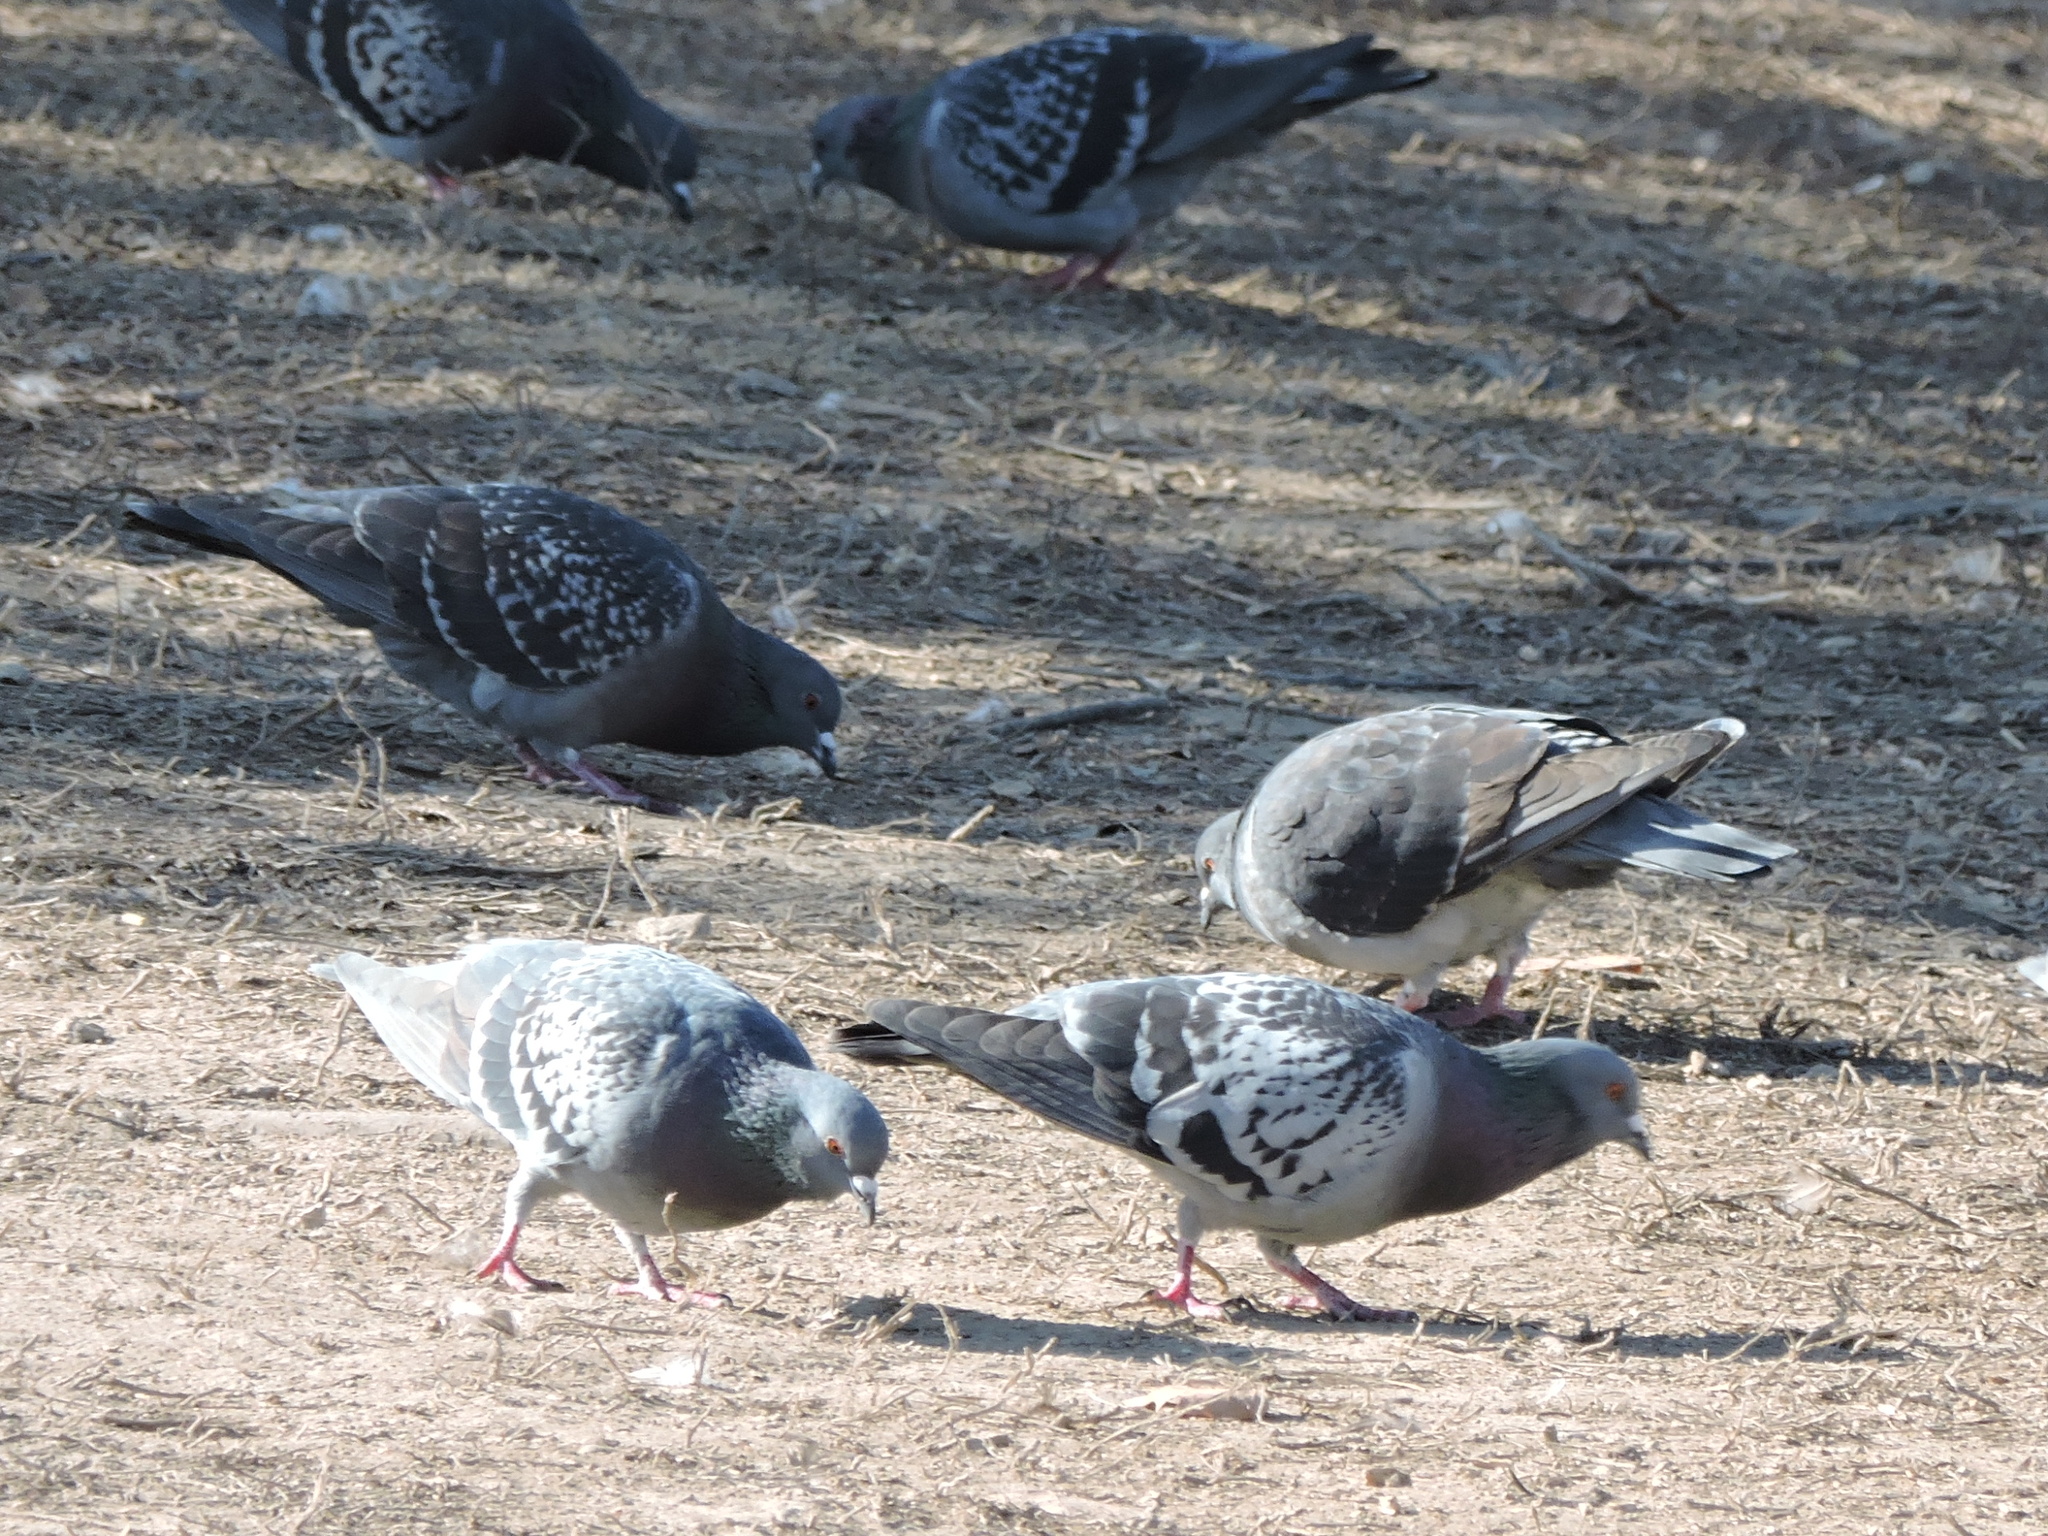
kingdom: Animalia
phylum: Chordata
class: Aves
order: Columbiformes
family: Columbidae
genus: Columba
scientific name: Columba livia
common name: Rock pigeon
